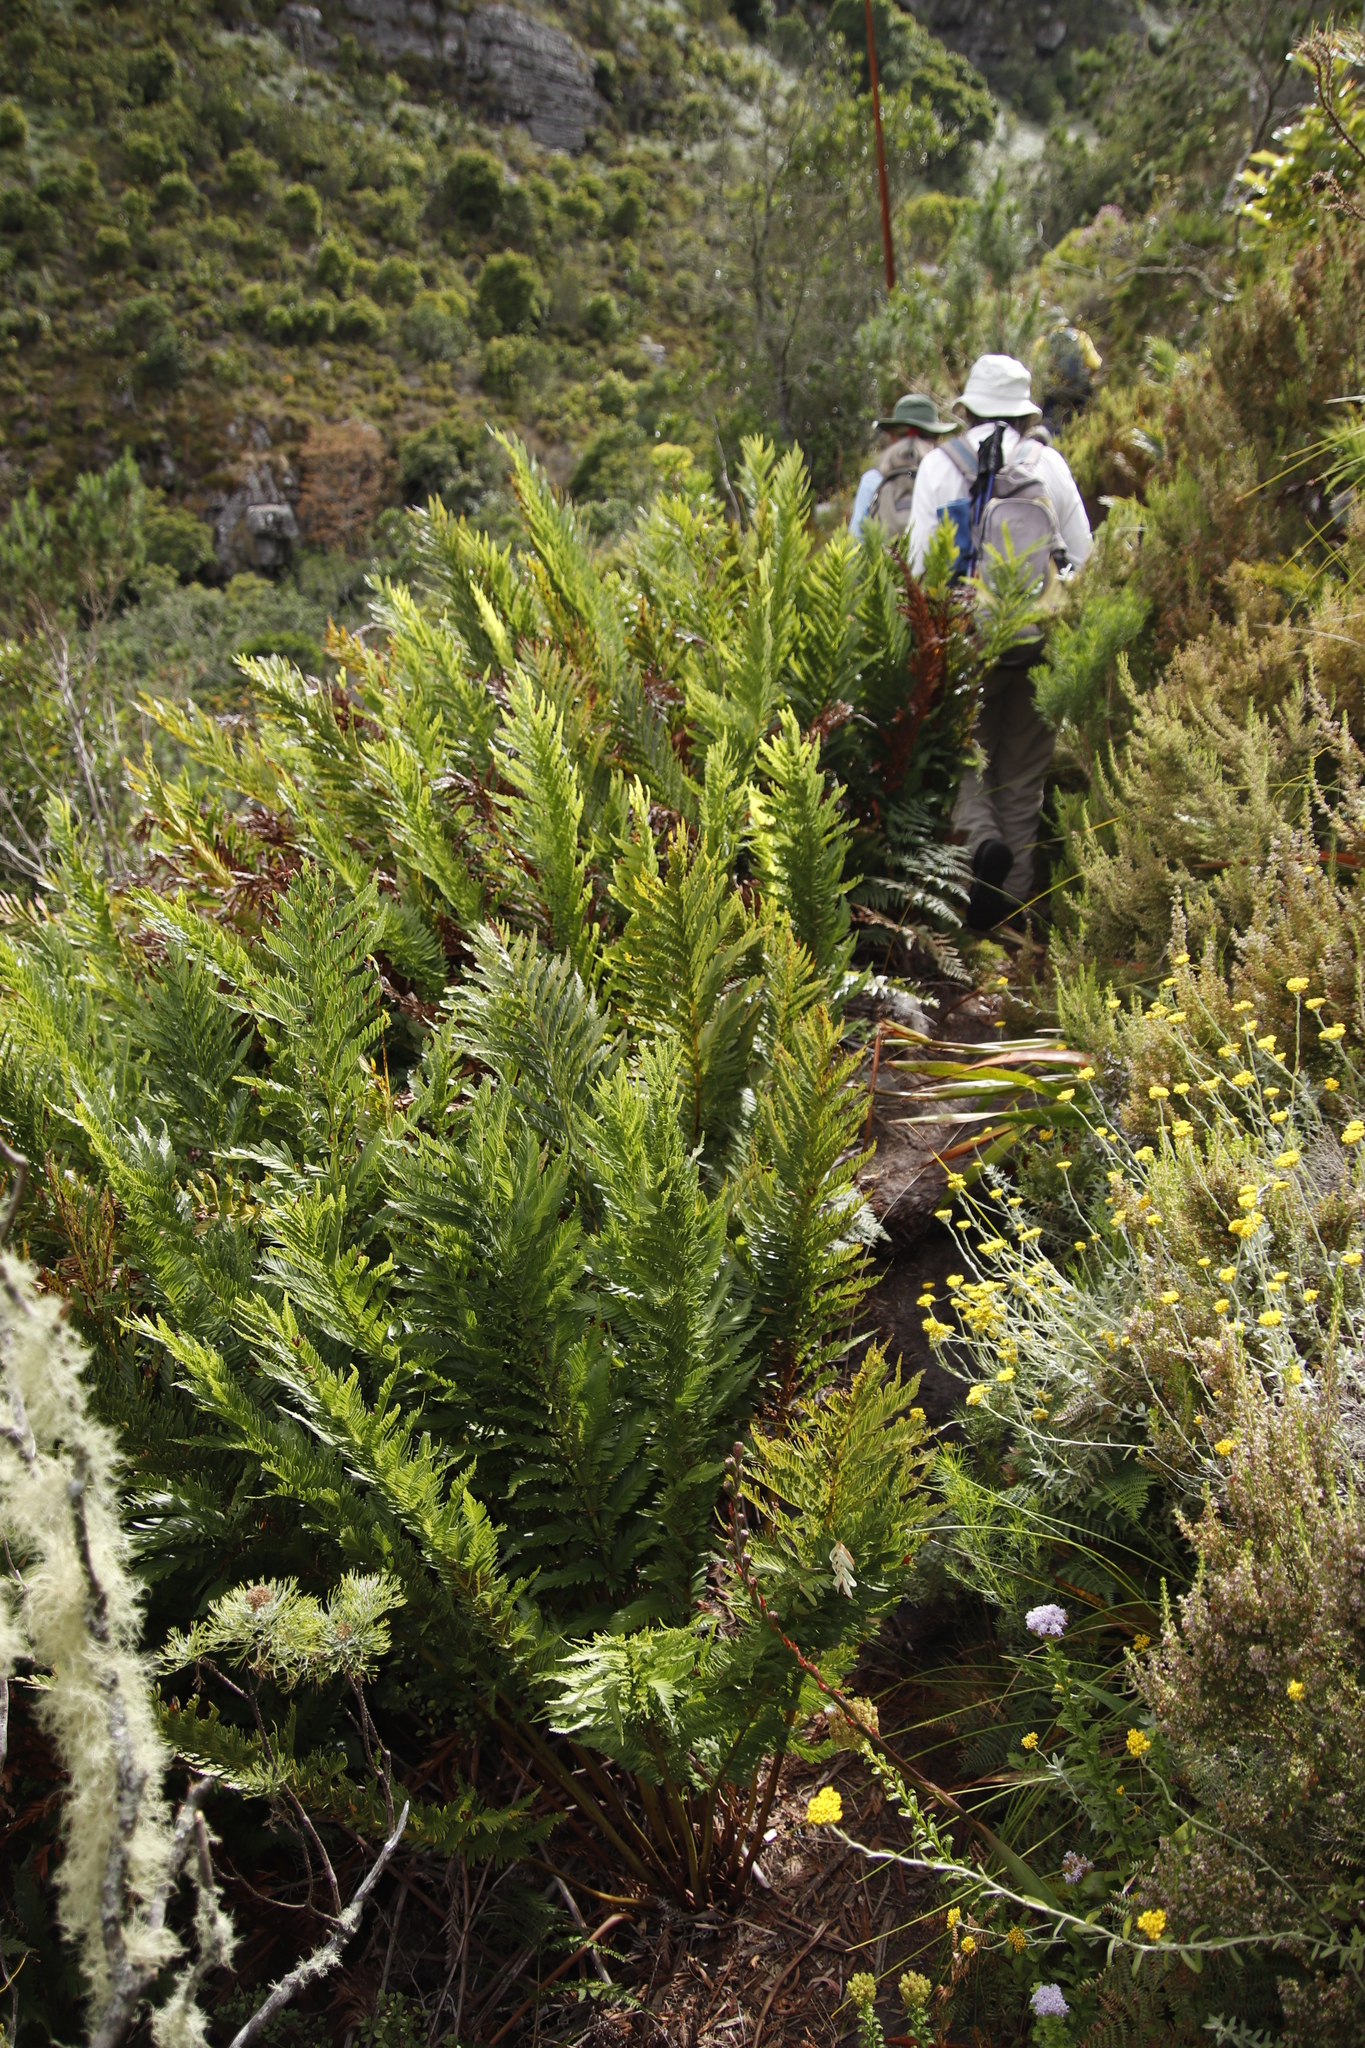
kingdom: Plantae
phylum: Tracheophyta
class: Polypodiopsida
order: Osmundales
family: Osmundaceae
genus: Todea
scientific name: Todea barbara
